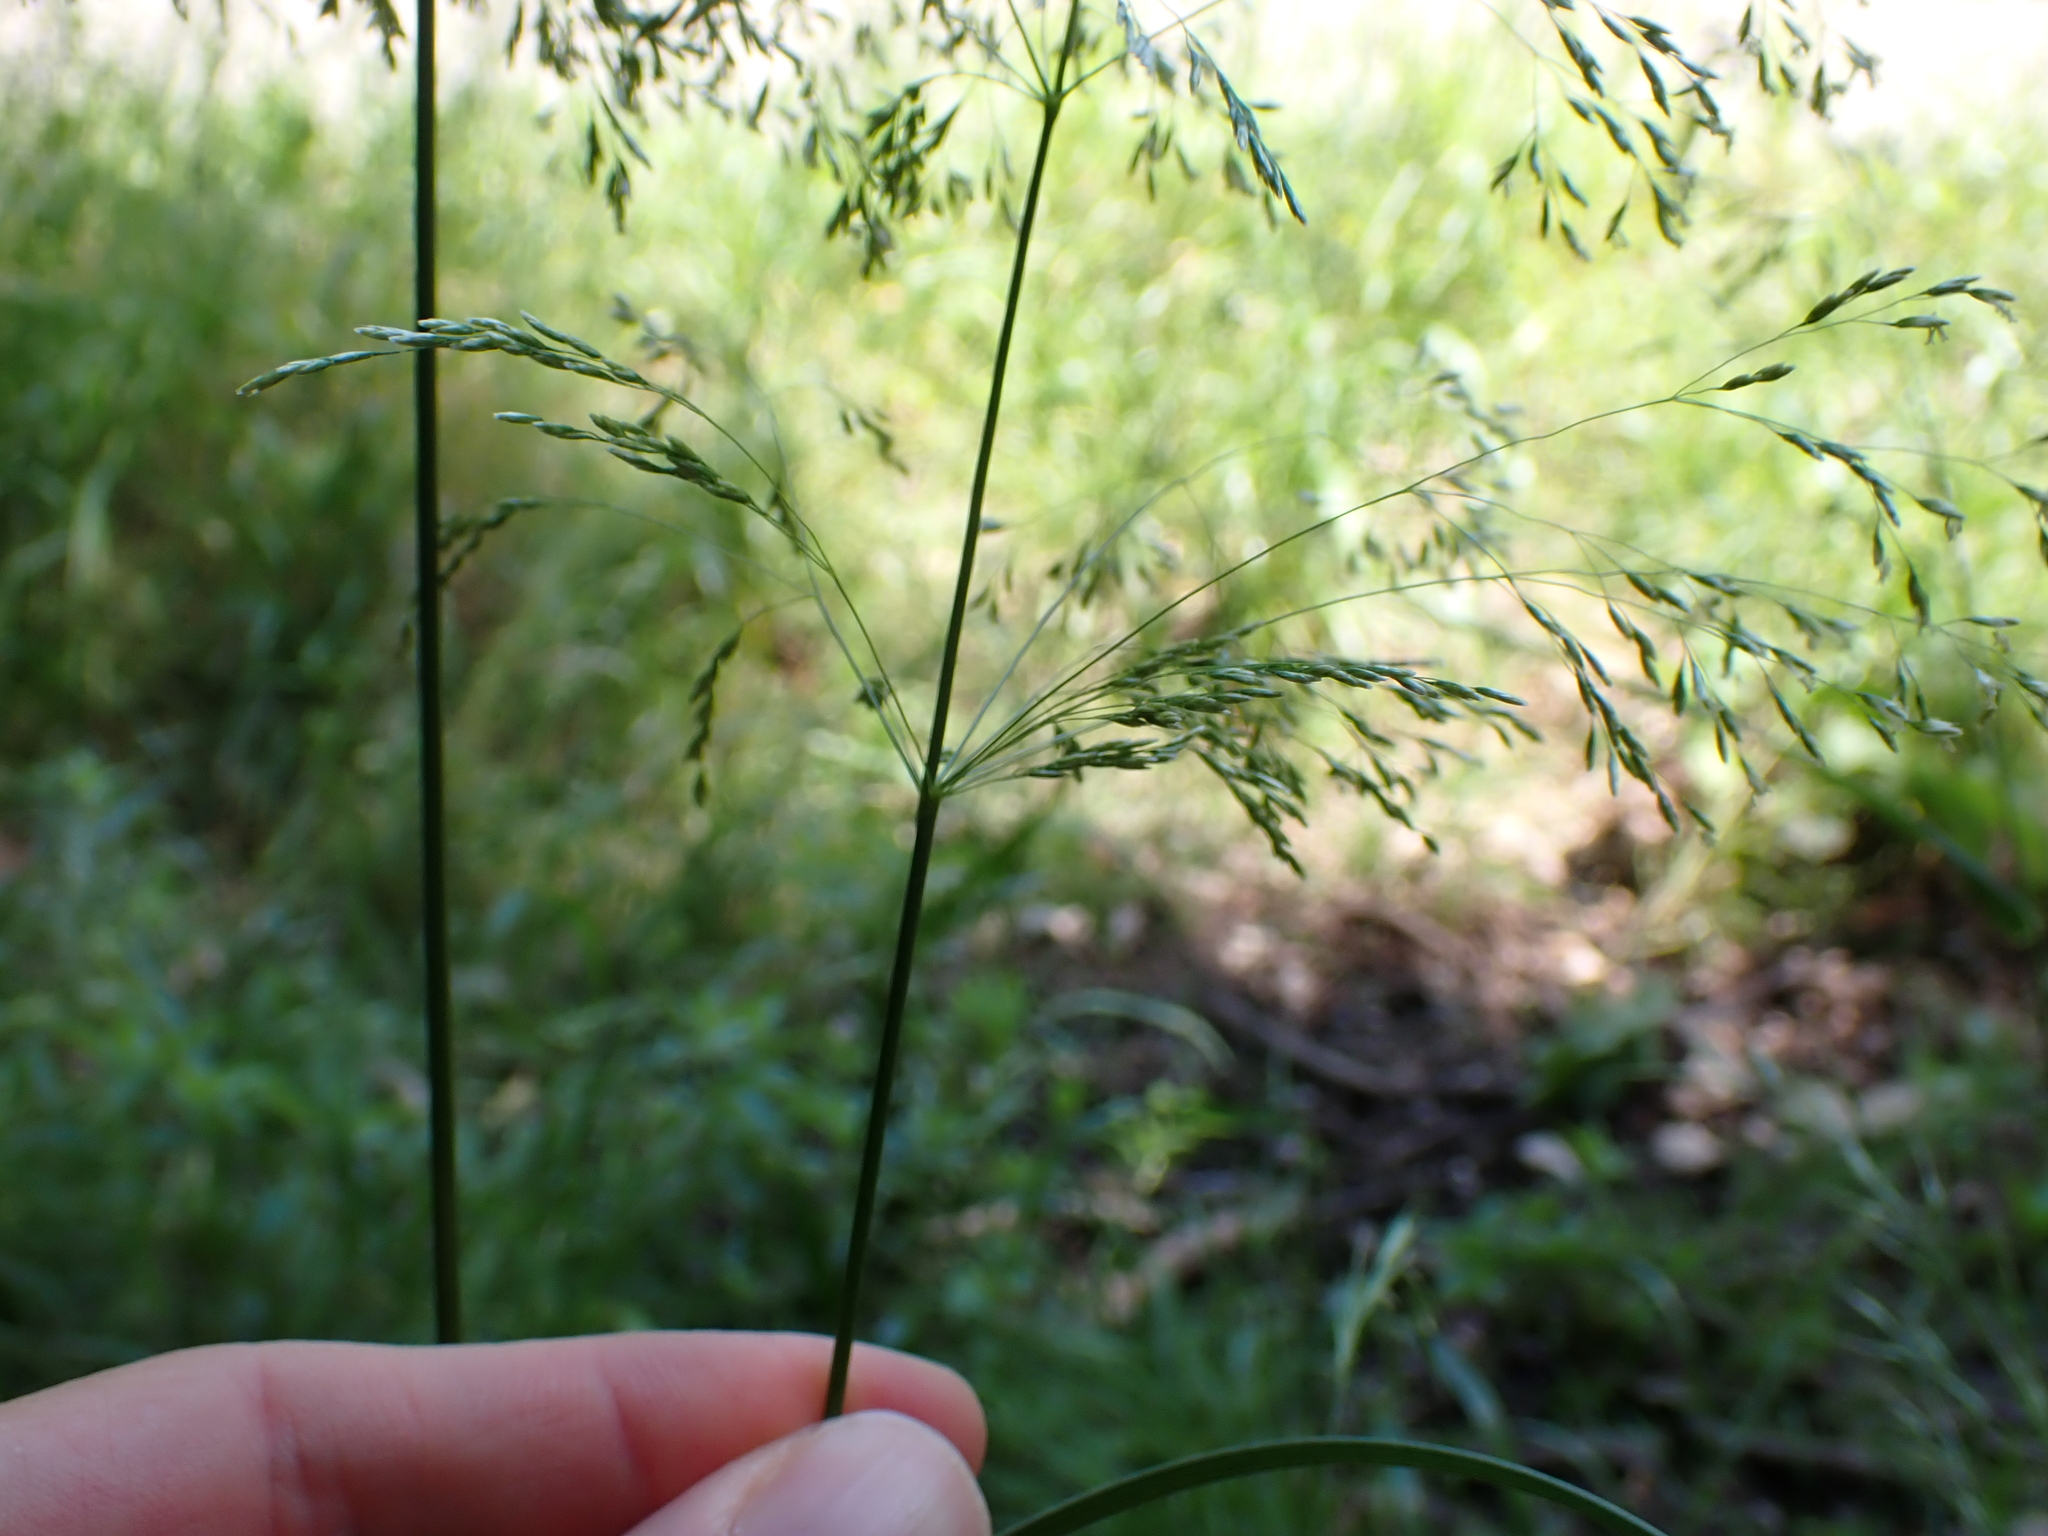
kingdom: Plantae
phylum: Tracheophyta
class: Liliopsida
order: Poales
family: Poaceae
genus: Deschampsia
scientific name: Deschampsia cespitosa
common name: Tufted hair-grass
